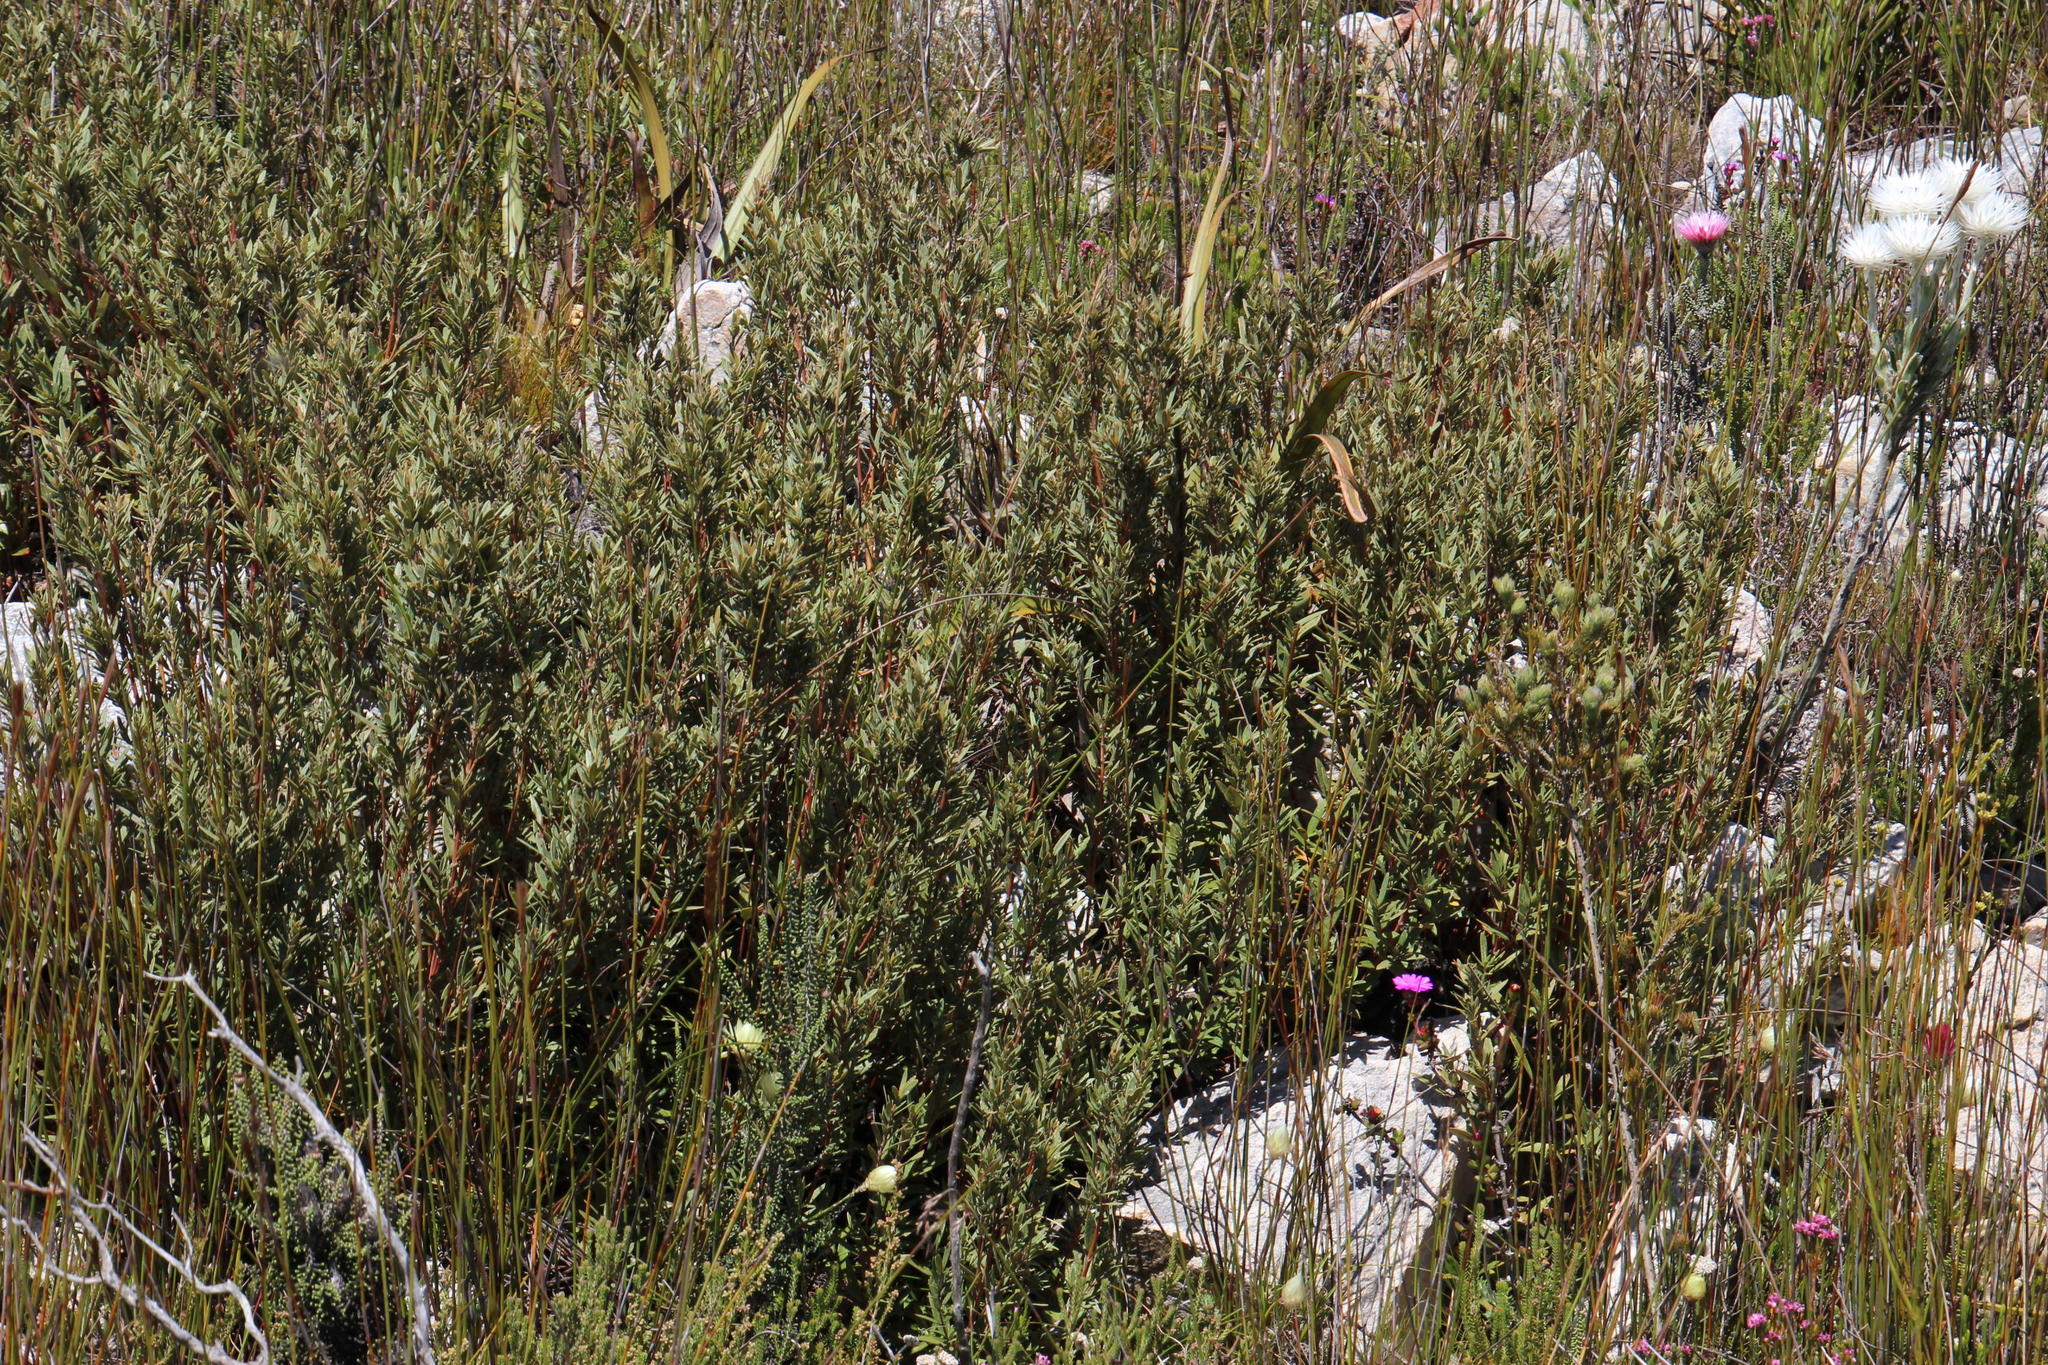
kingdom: Plantae
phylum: Tracheophyta
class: Magnoliopsida
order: Cornales
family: Grubbiaceae
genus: Grubbia
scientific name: Grubbia tomentosa
